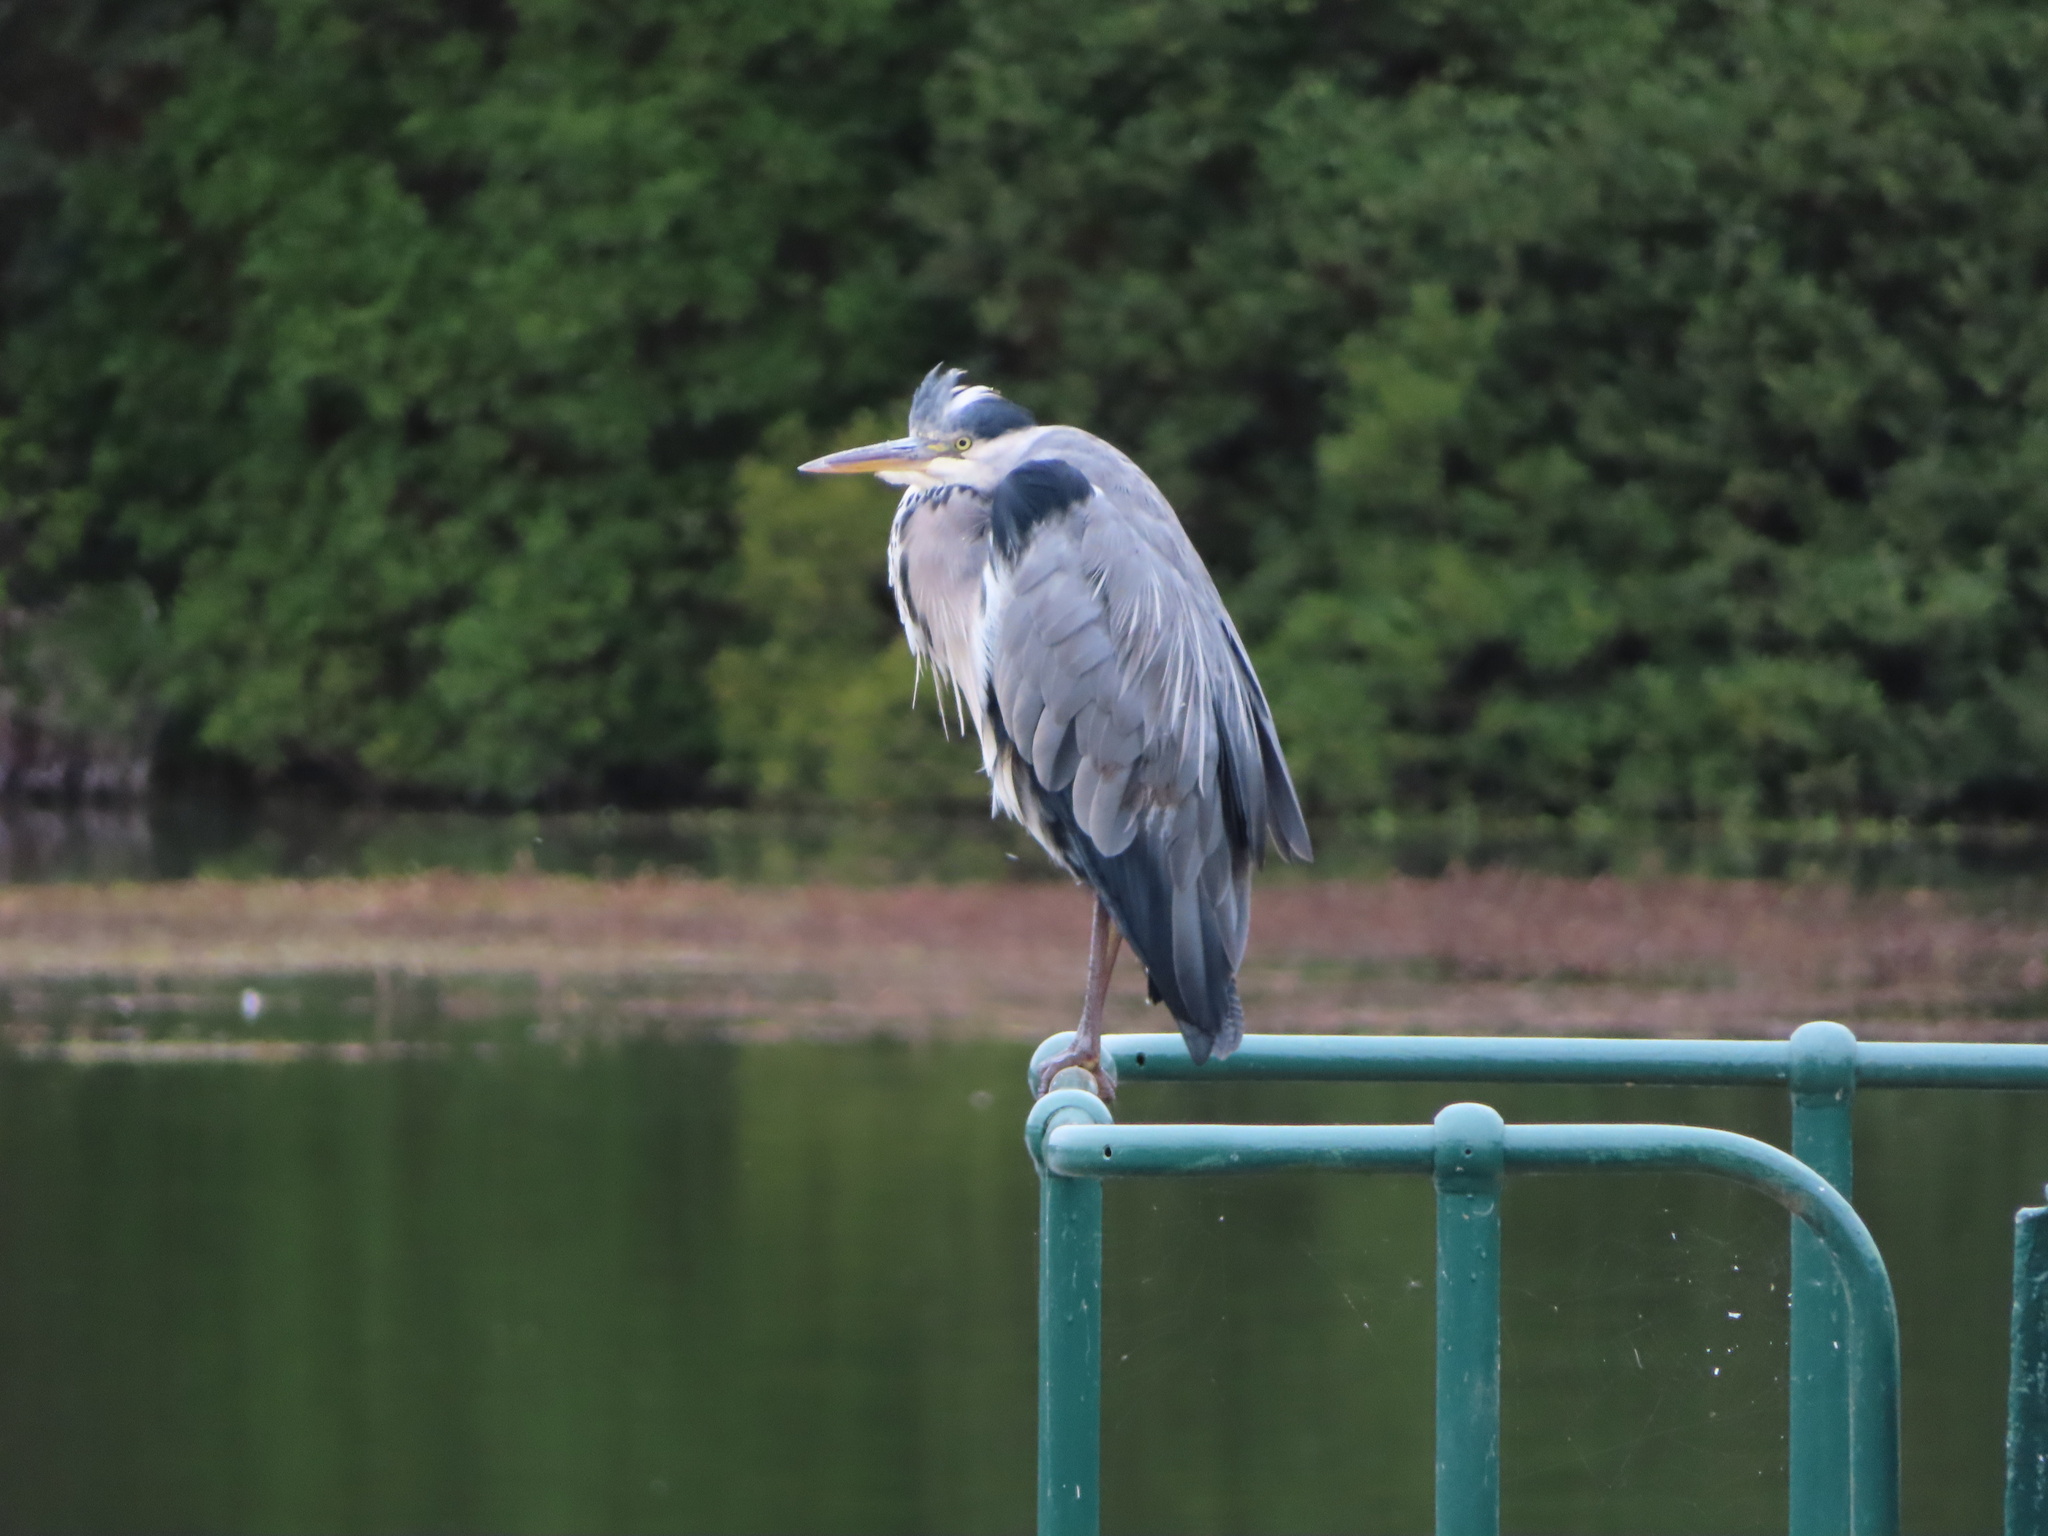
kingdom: Animalia
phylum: Chordata
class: Aves
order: Pelecaniformes
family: Ardeidae
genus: Ardea
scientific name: Ardea cinerea
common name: Grey heron
